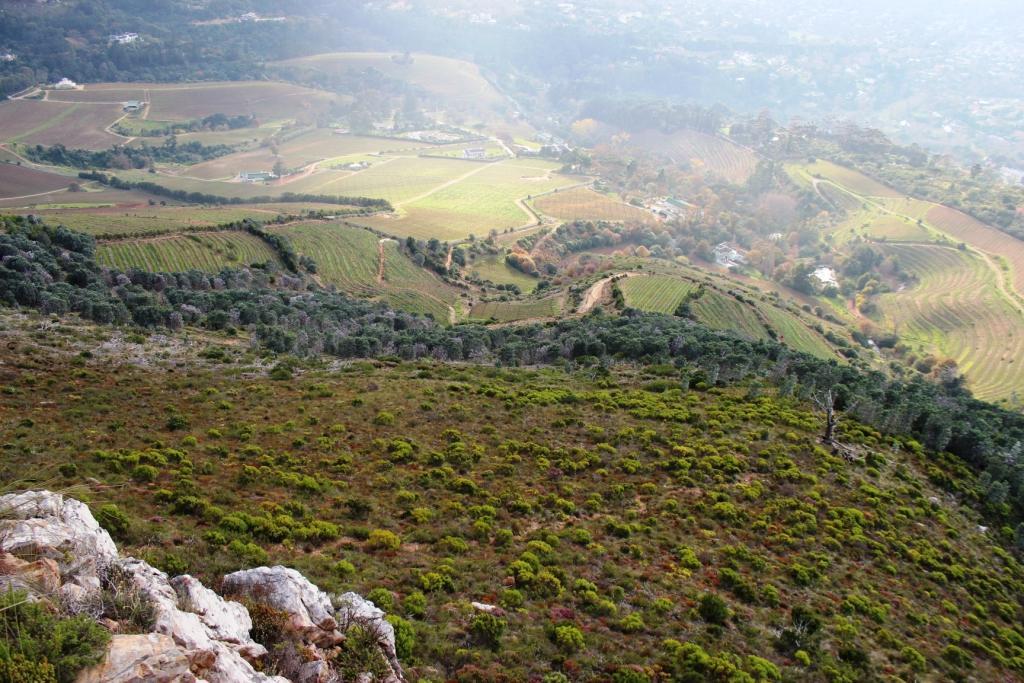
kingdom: Plantae
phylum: Tracheophyta
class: Magnoliopsida
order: Proteales
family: Proteaceae
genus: Leucadendron
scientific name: Leucadendron argenteum
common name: Cape silver tree
